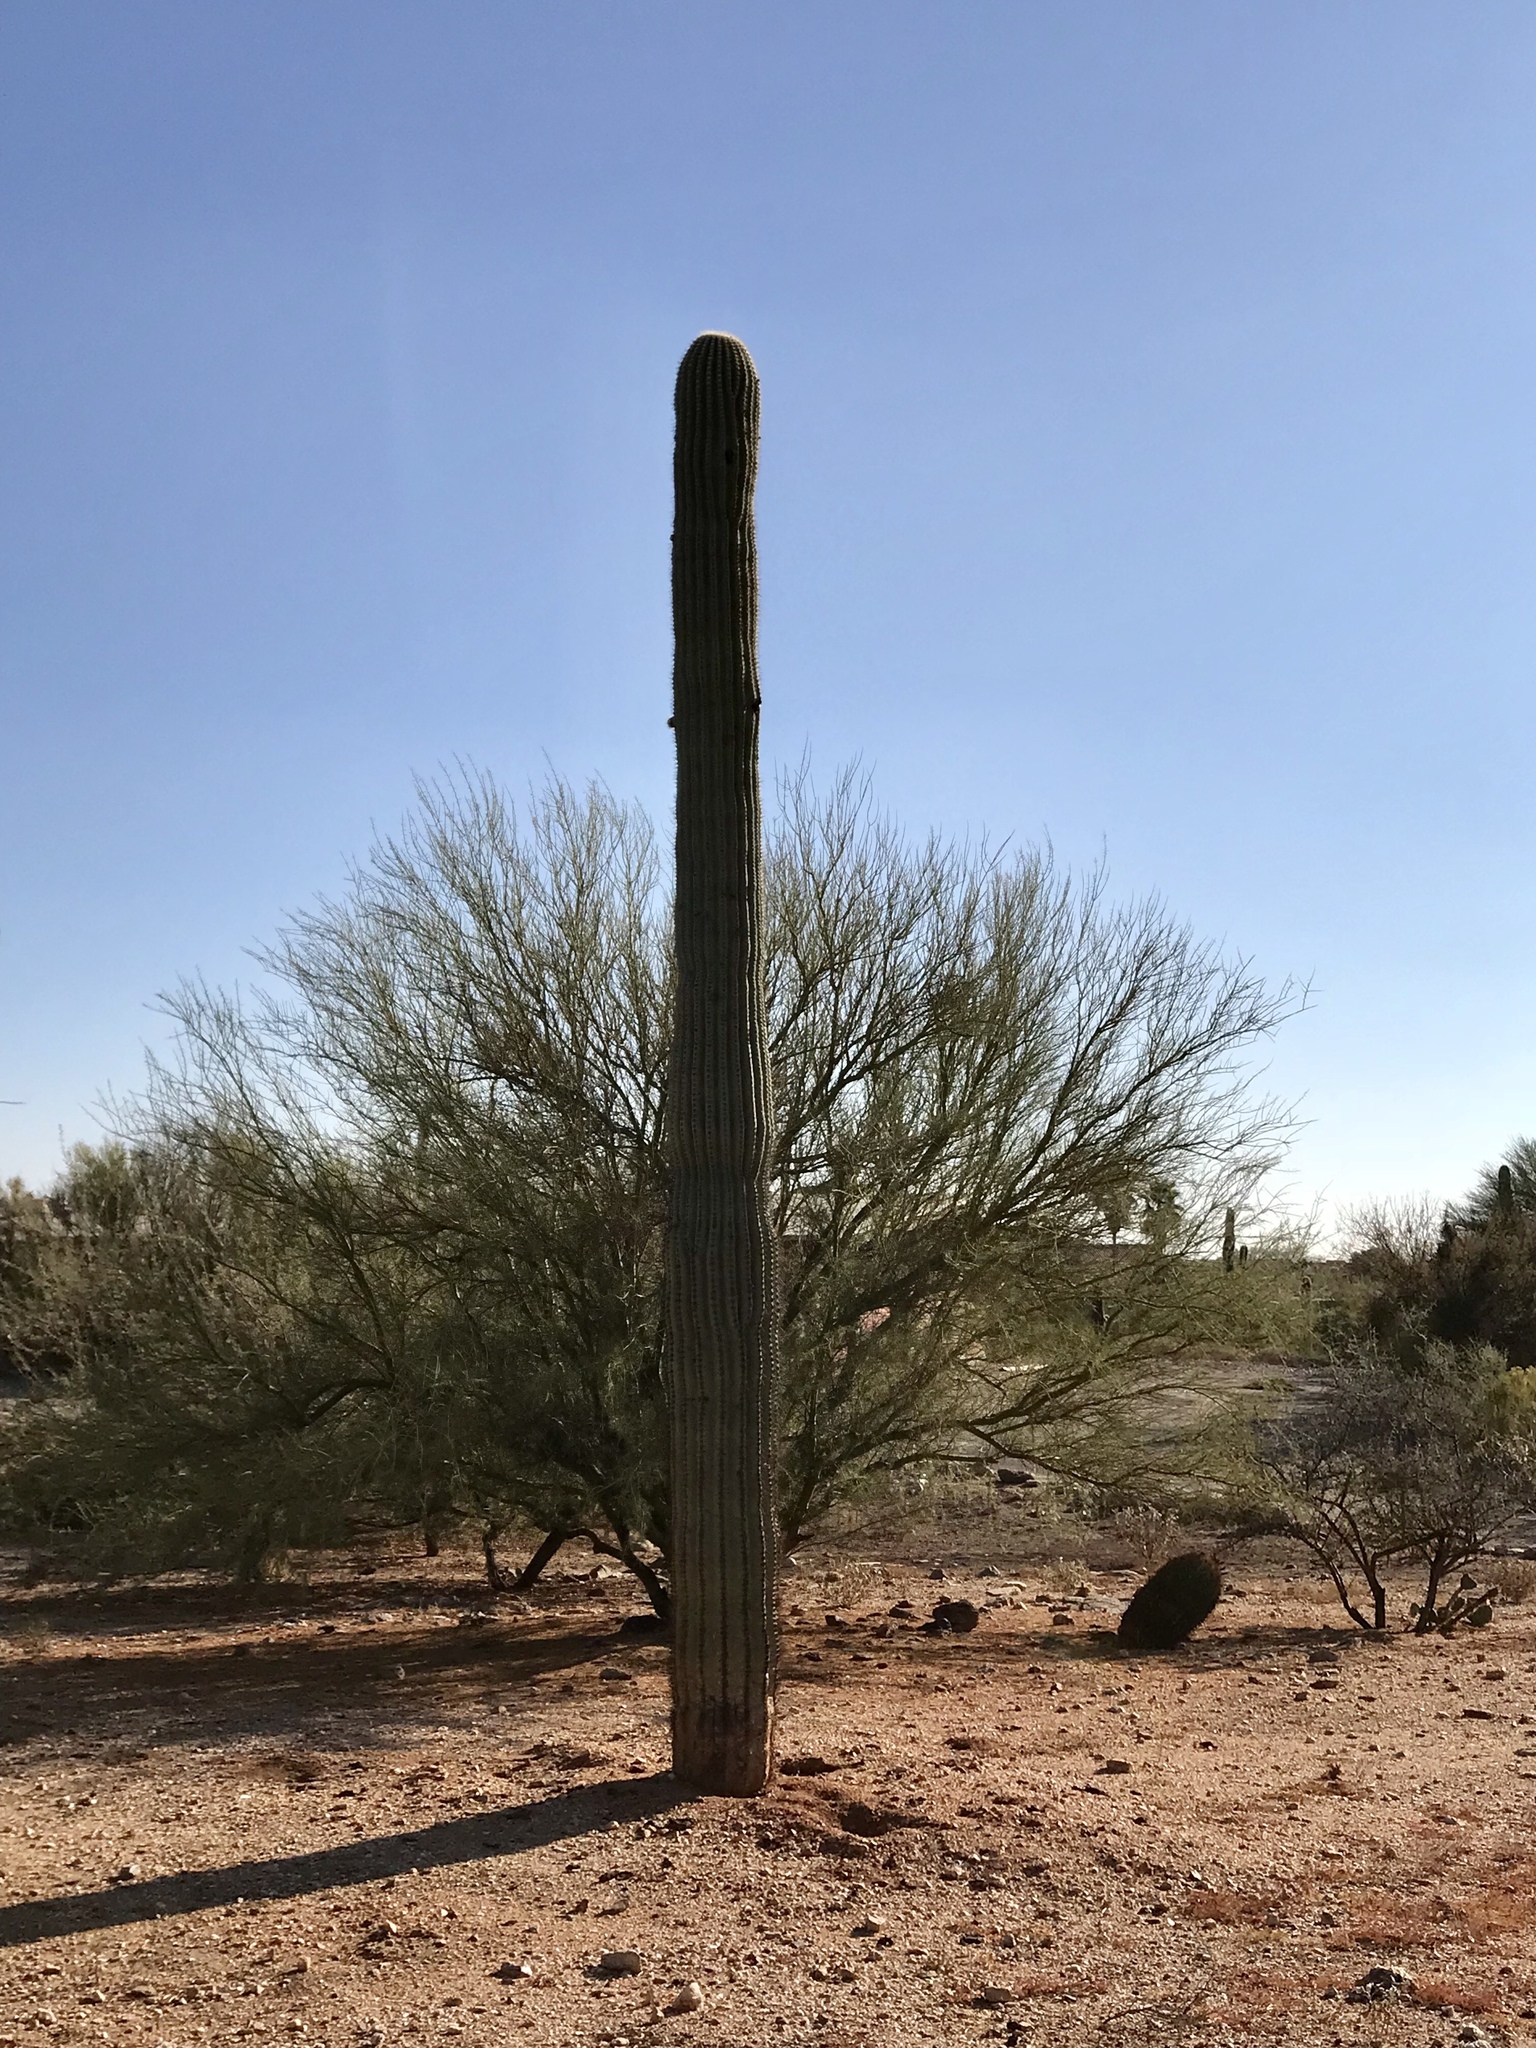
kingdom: Plantae
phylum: Tracheophyta
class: Magnoliopsida
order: Caryophyllales
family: Cactaceae
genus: Carnegiea
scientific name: Carnegiea gigantea
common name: Saguaro
